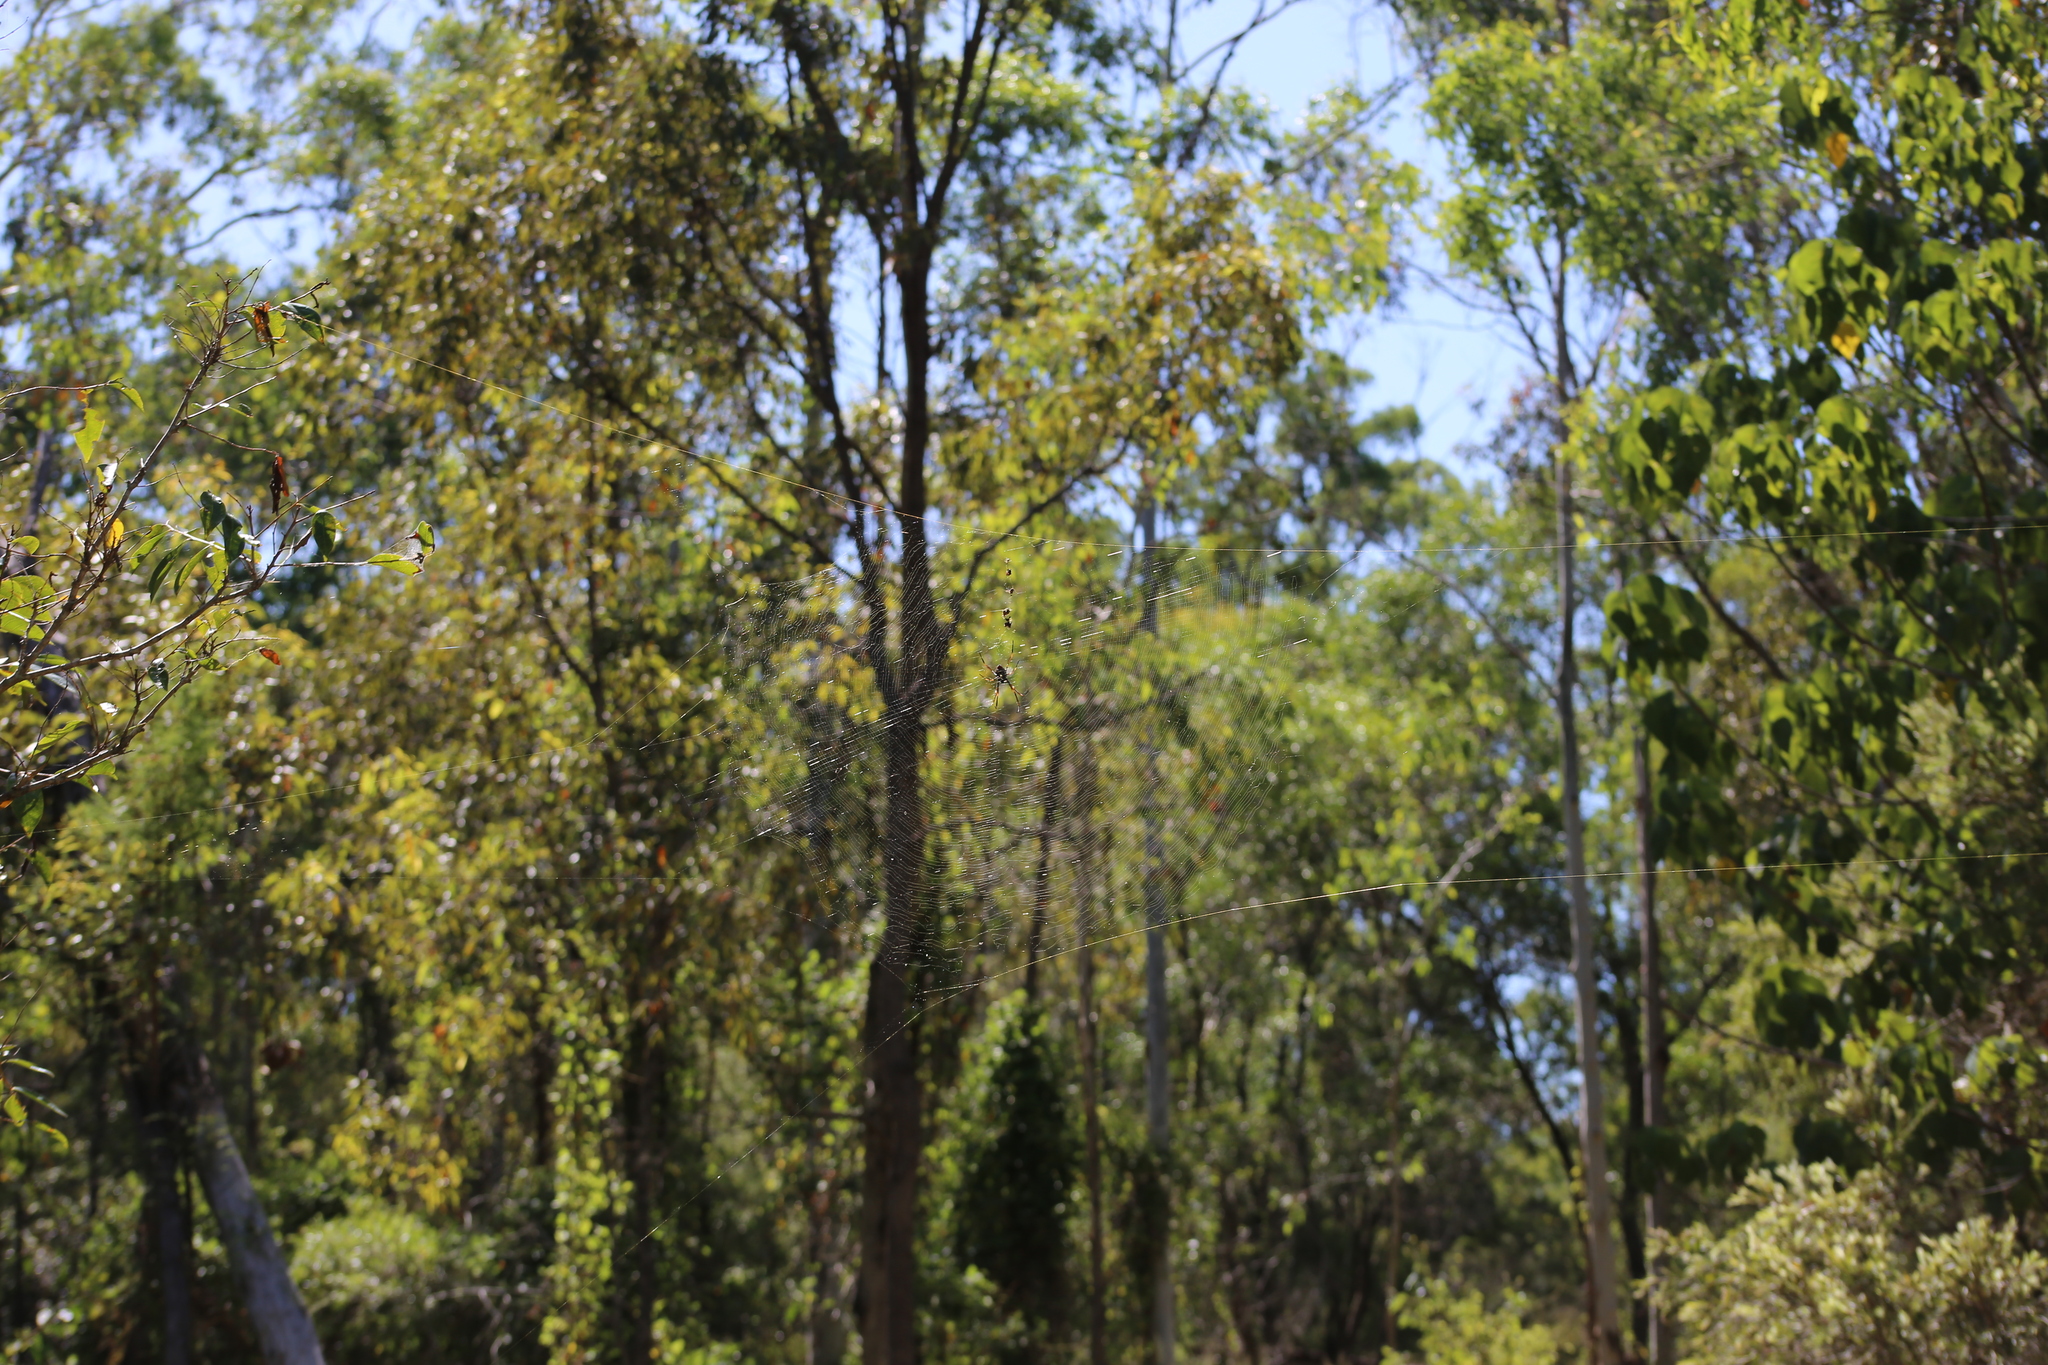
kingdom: Animalia
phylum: Arthropoda
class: Arachnida
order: Araneae
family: Araneidae
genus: Trichonephila
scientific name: Trichonephila plumipes
